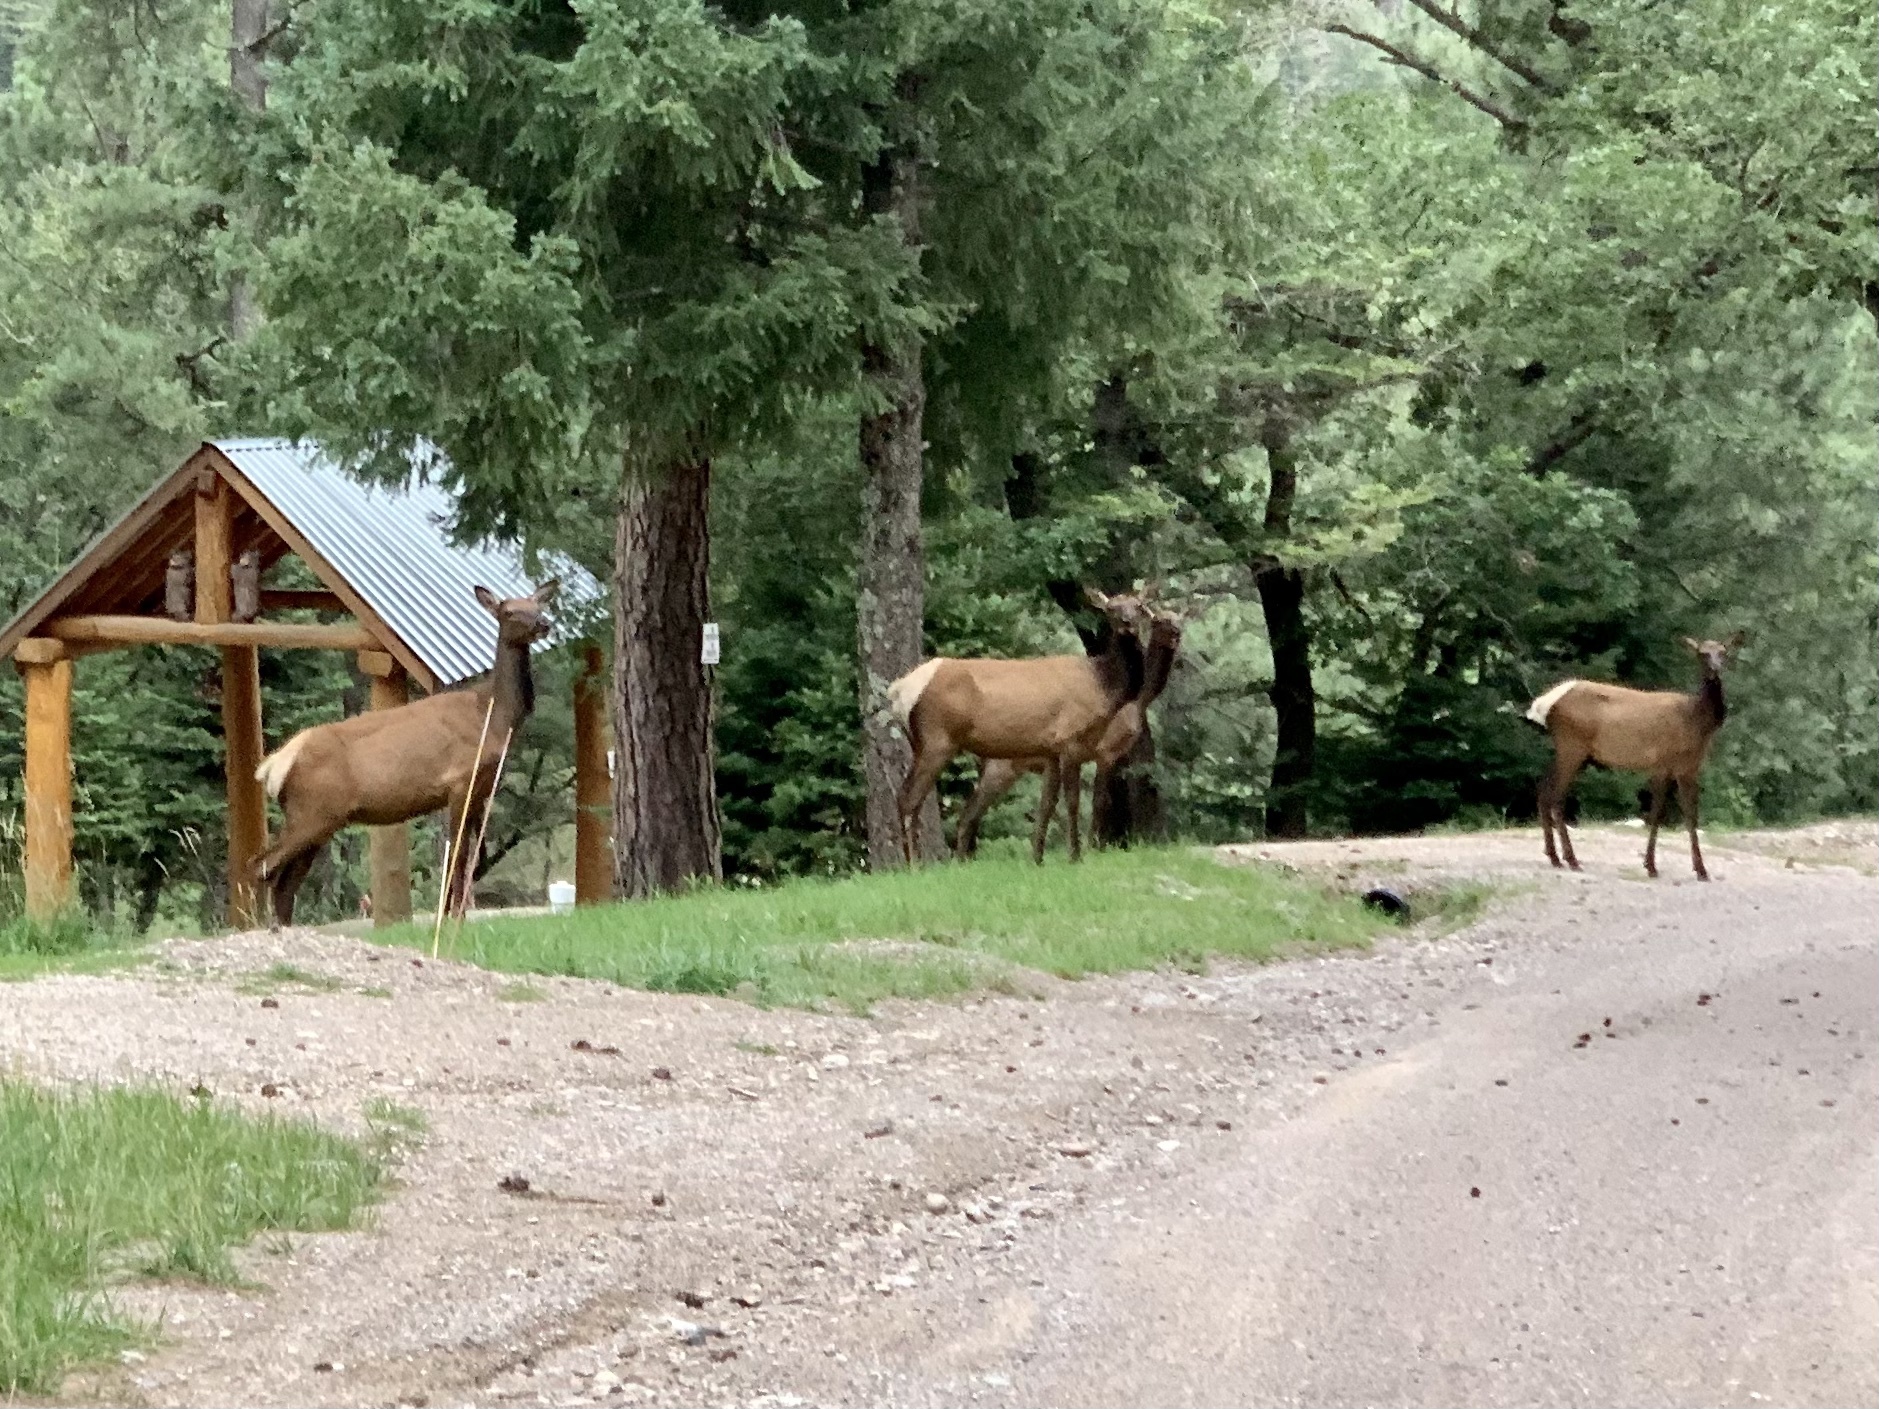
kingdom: Animalia
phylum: Chordata
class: Mammalia
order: Artiodactyla
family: Cervidae
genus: Cervus
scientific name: Cervus elaphus
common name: Red deer
